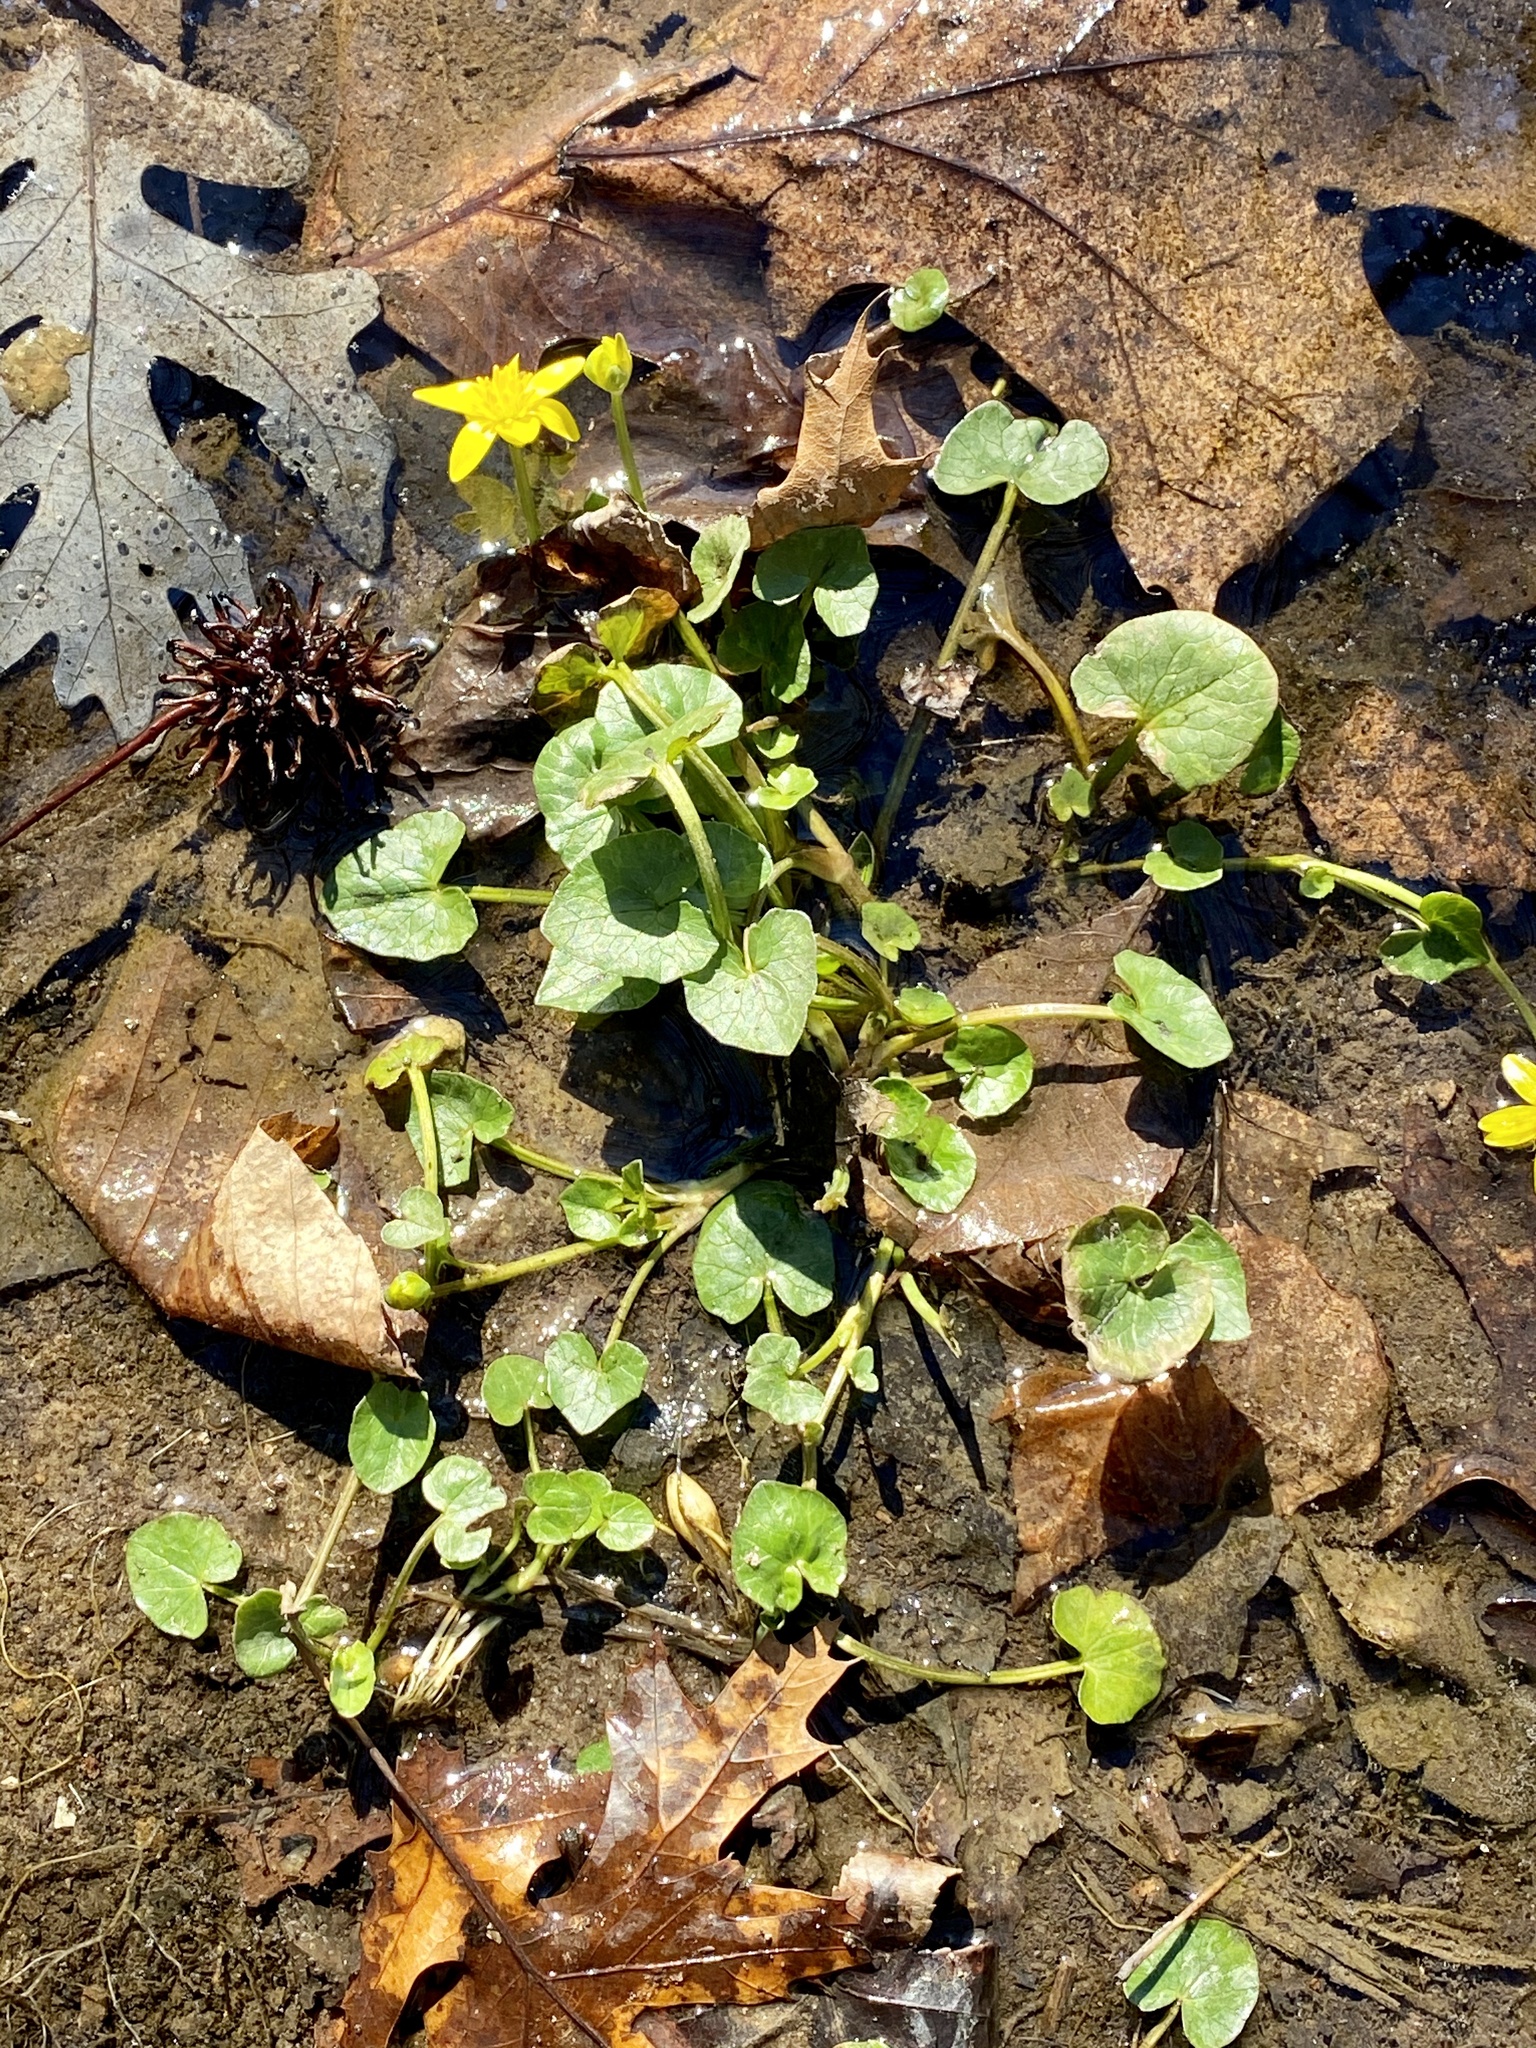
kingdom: Plantae
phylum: Tracheophyta
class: Magnoliopsida
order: Ranunculales
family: Ranunculaceae
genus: Ficaria
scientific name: Ficaria verna
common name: Lesser celandine
